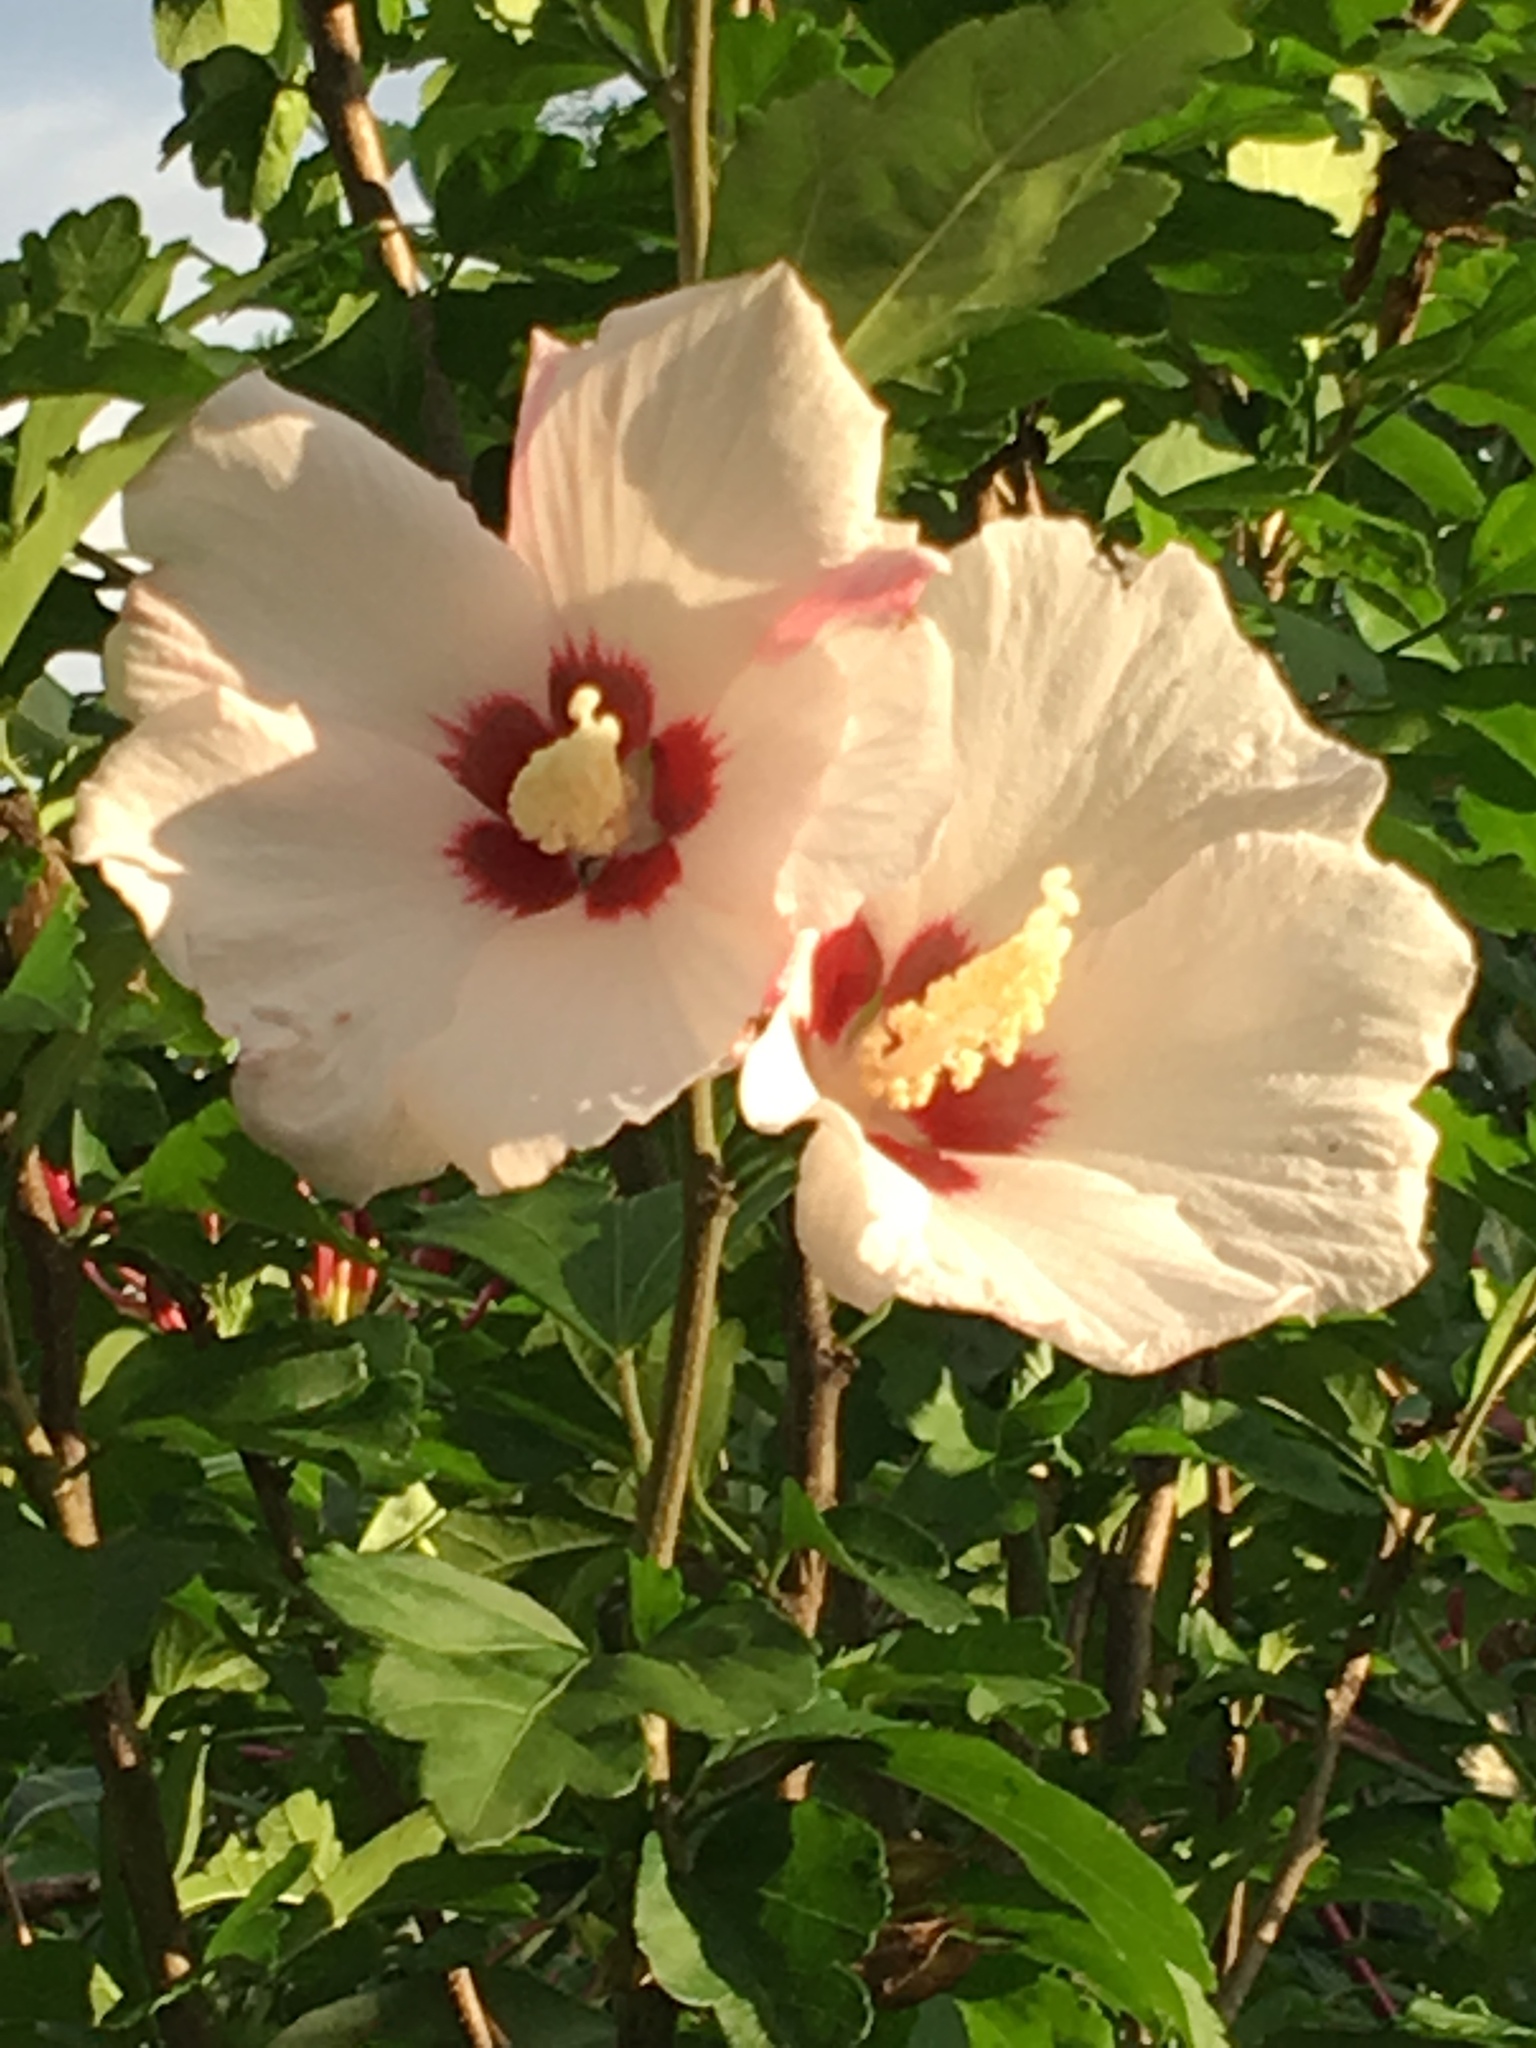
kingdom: Plantae
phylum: Tracheophyta
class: Magnoliopsida
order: Malvales
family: Malvaceae
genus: Hibiscus
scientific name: Hibiscus syriacus
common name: Syrian ketmia
